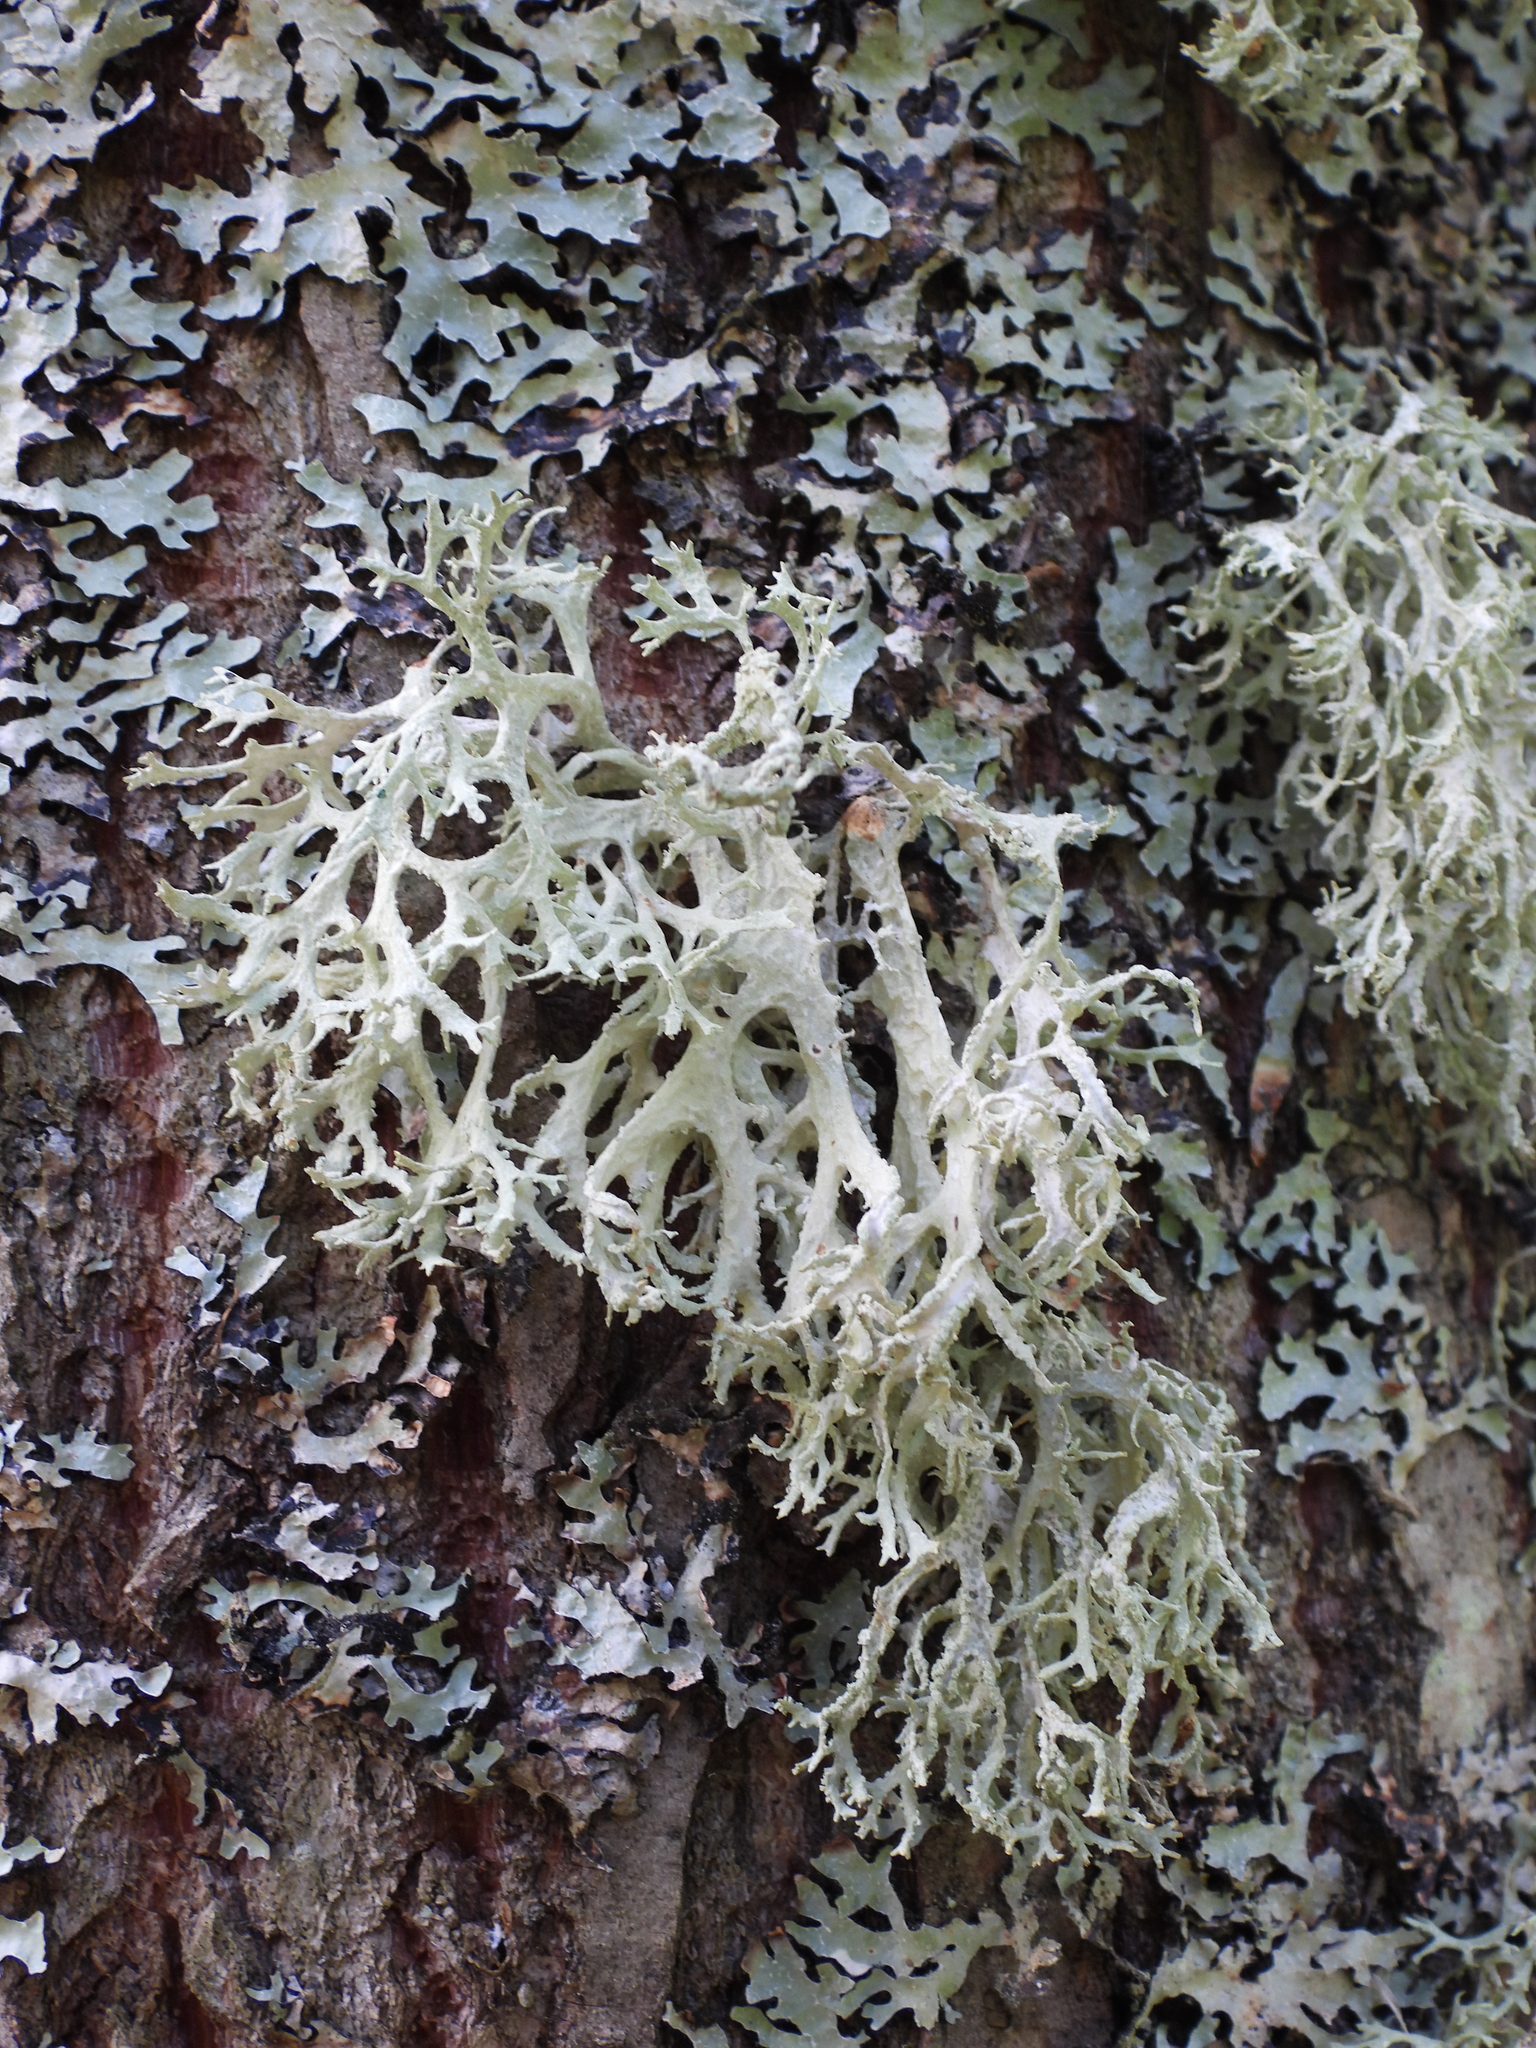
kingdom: Fungi
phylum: Ascomycota
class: Lecanoromycetes
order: Lecanorales
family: Parmeliaceae
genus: Evernia
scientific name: Evernia prunastri
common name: Oak moss
